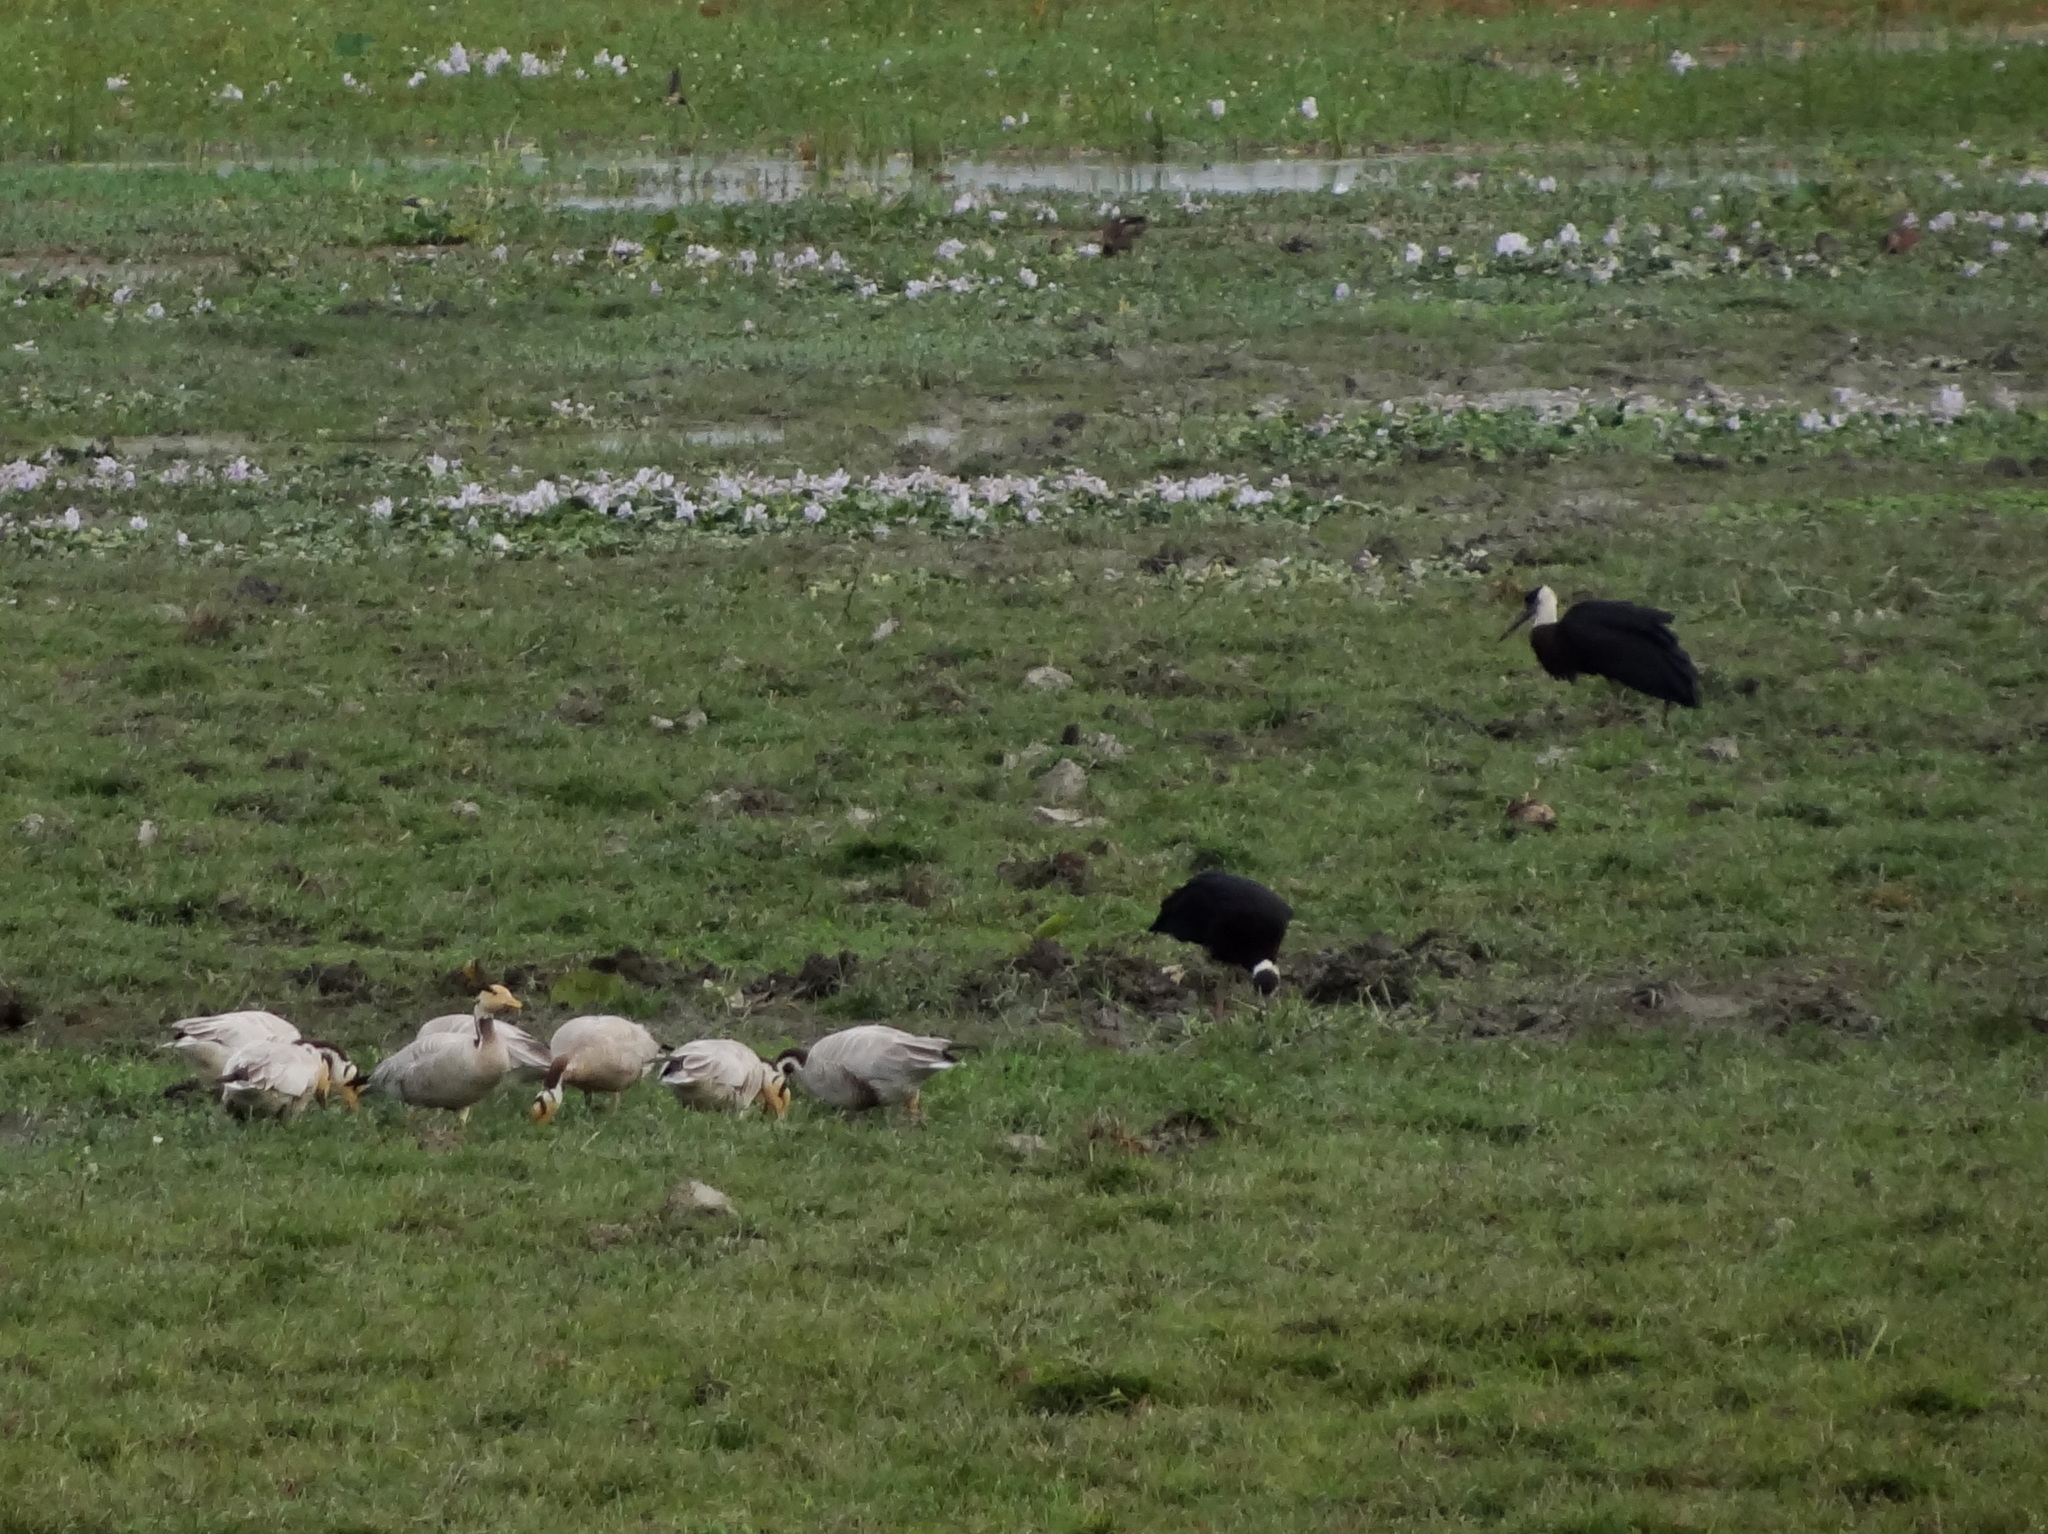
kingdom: Animalia
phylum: Chordata
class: Aves
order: Anseriformes
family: Anatidae
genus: Anser
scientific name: Anser indicus
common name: Bar-headed goose
